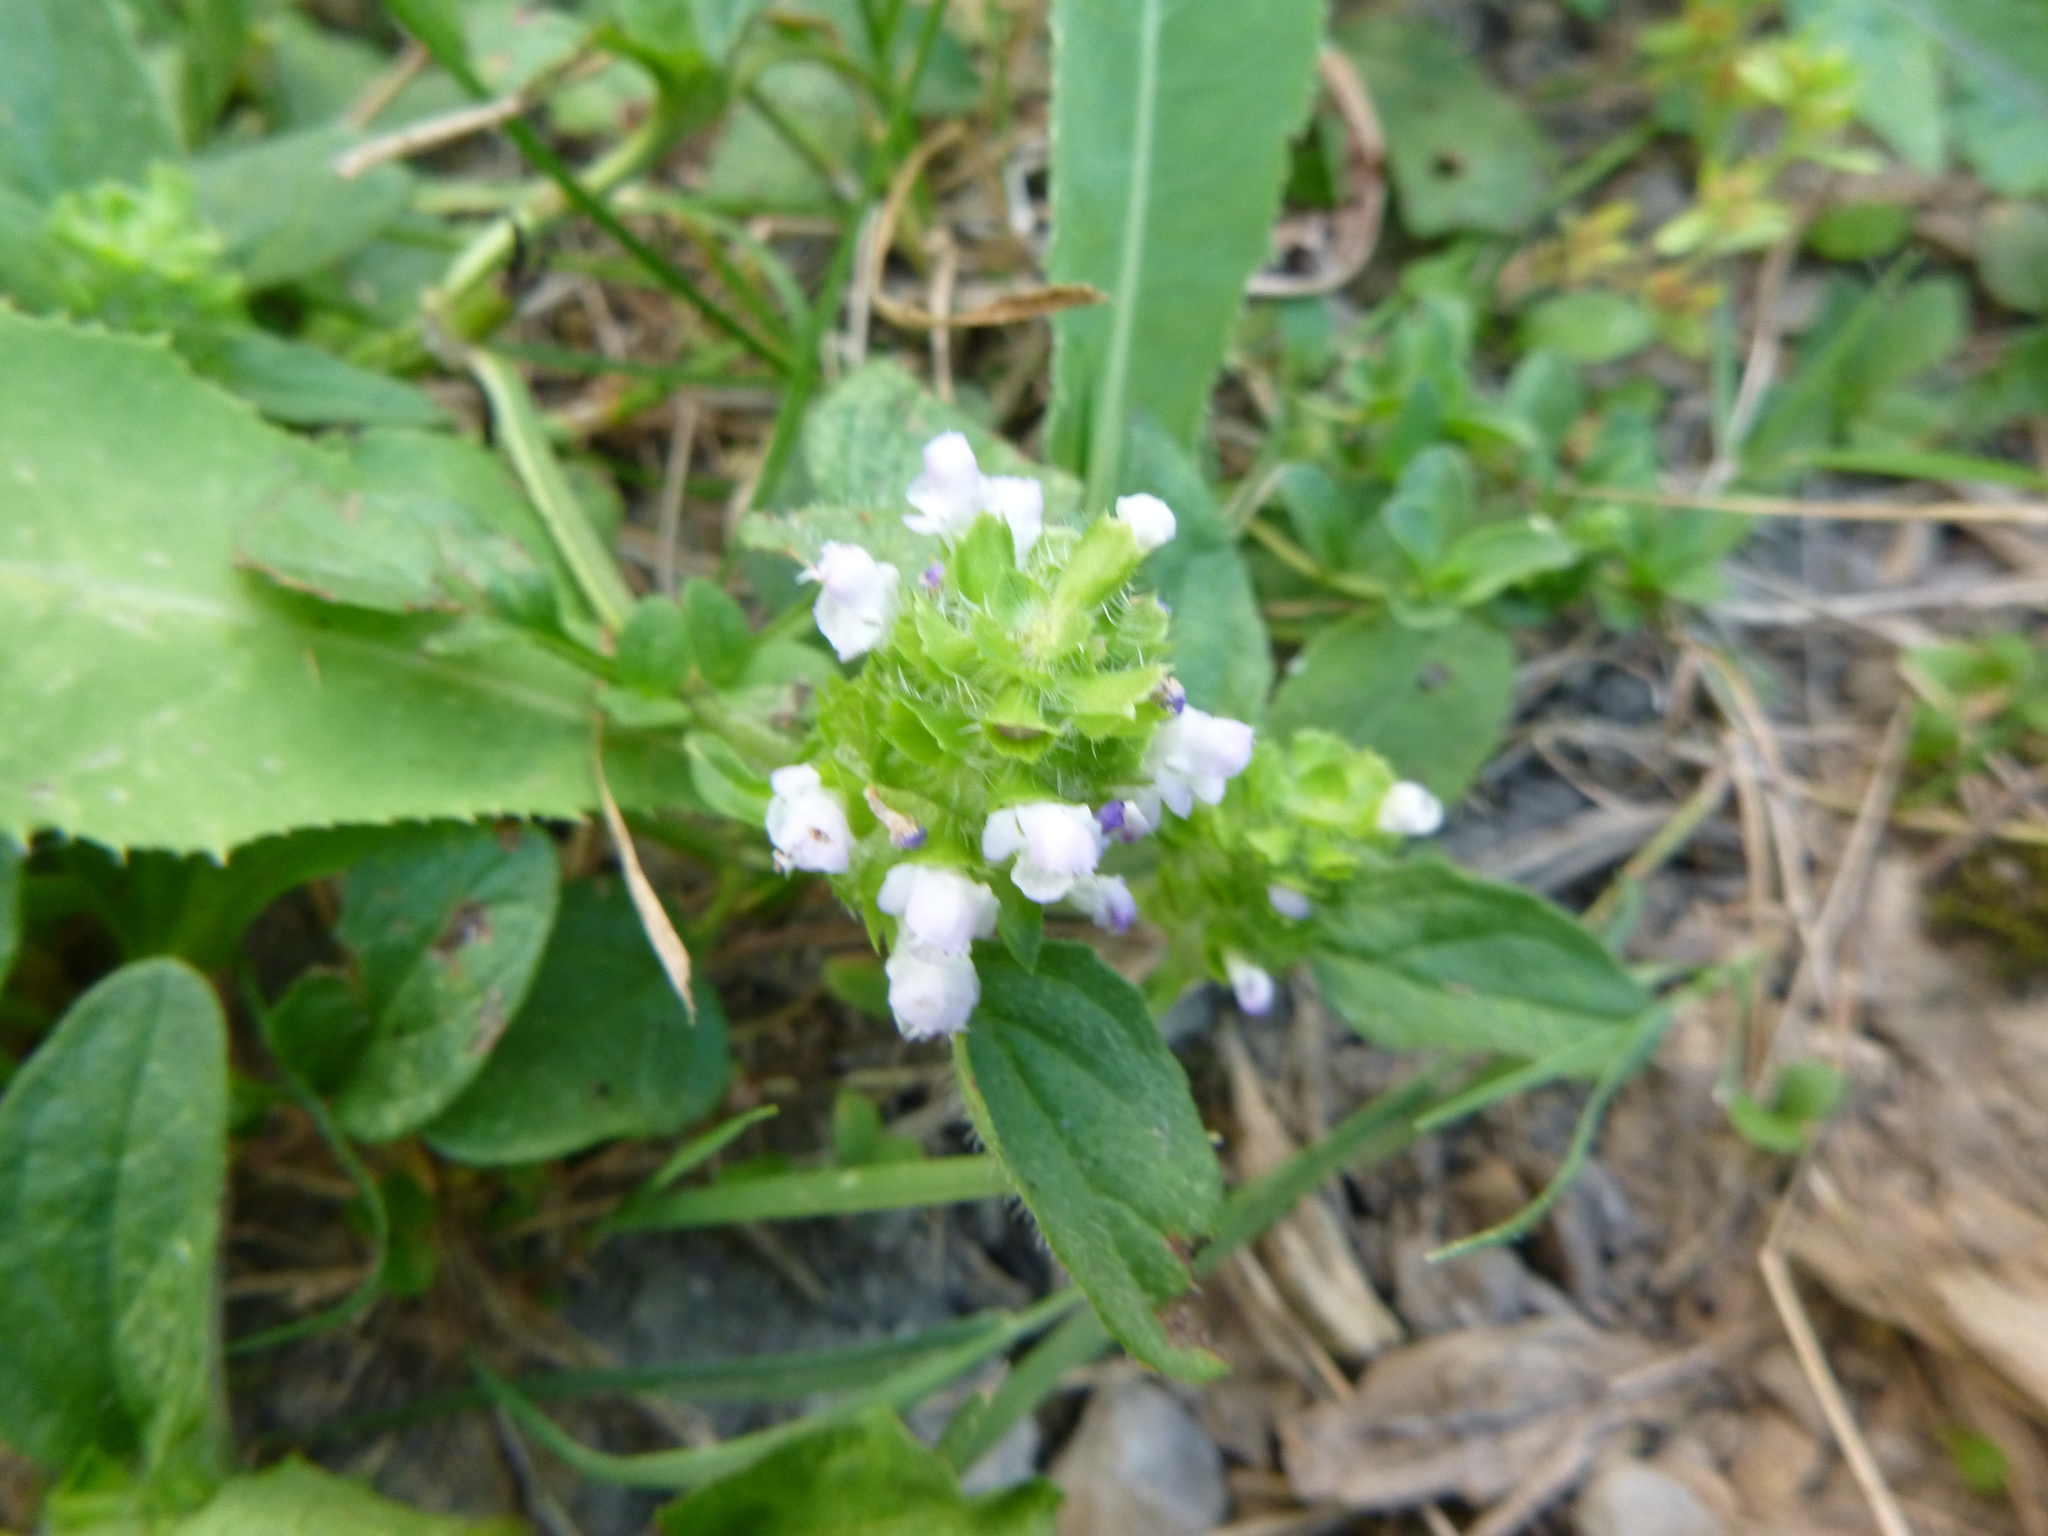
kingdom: Plantae
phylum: Tracheophyta
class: Magnoliopsida
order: Lamiales
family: Lamiaceae
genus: Prunella
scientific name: Prunella vulgaris
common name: Heal-all
